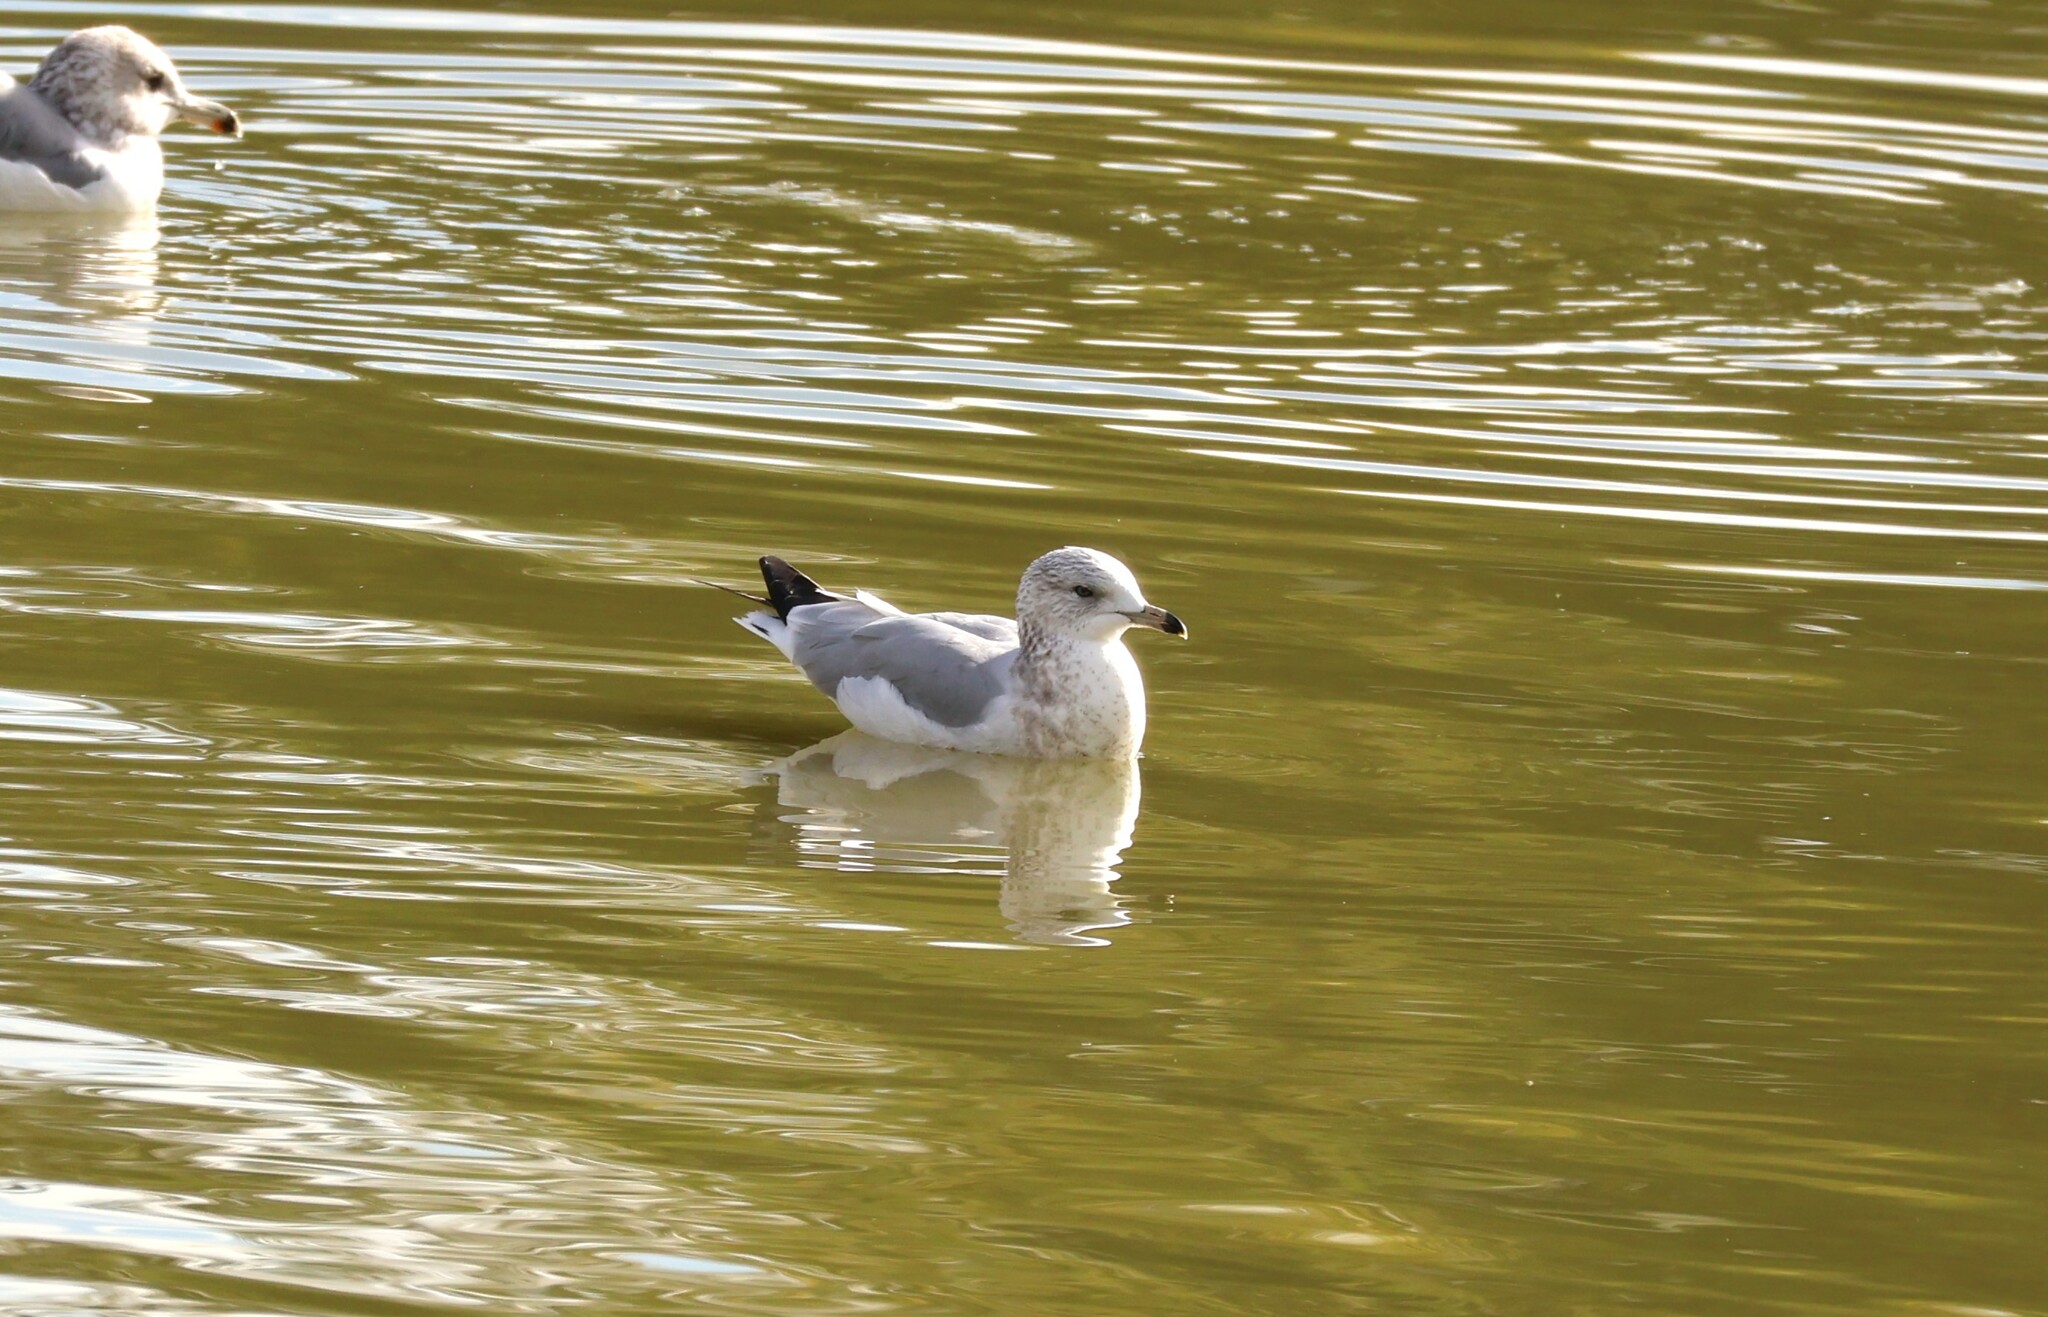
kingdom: Animalia
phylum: Chordata
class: Aves
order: Charadriiformes
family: Laridae
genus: Larus
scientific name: Larus delawarensis
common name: Ring-billed gull
